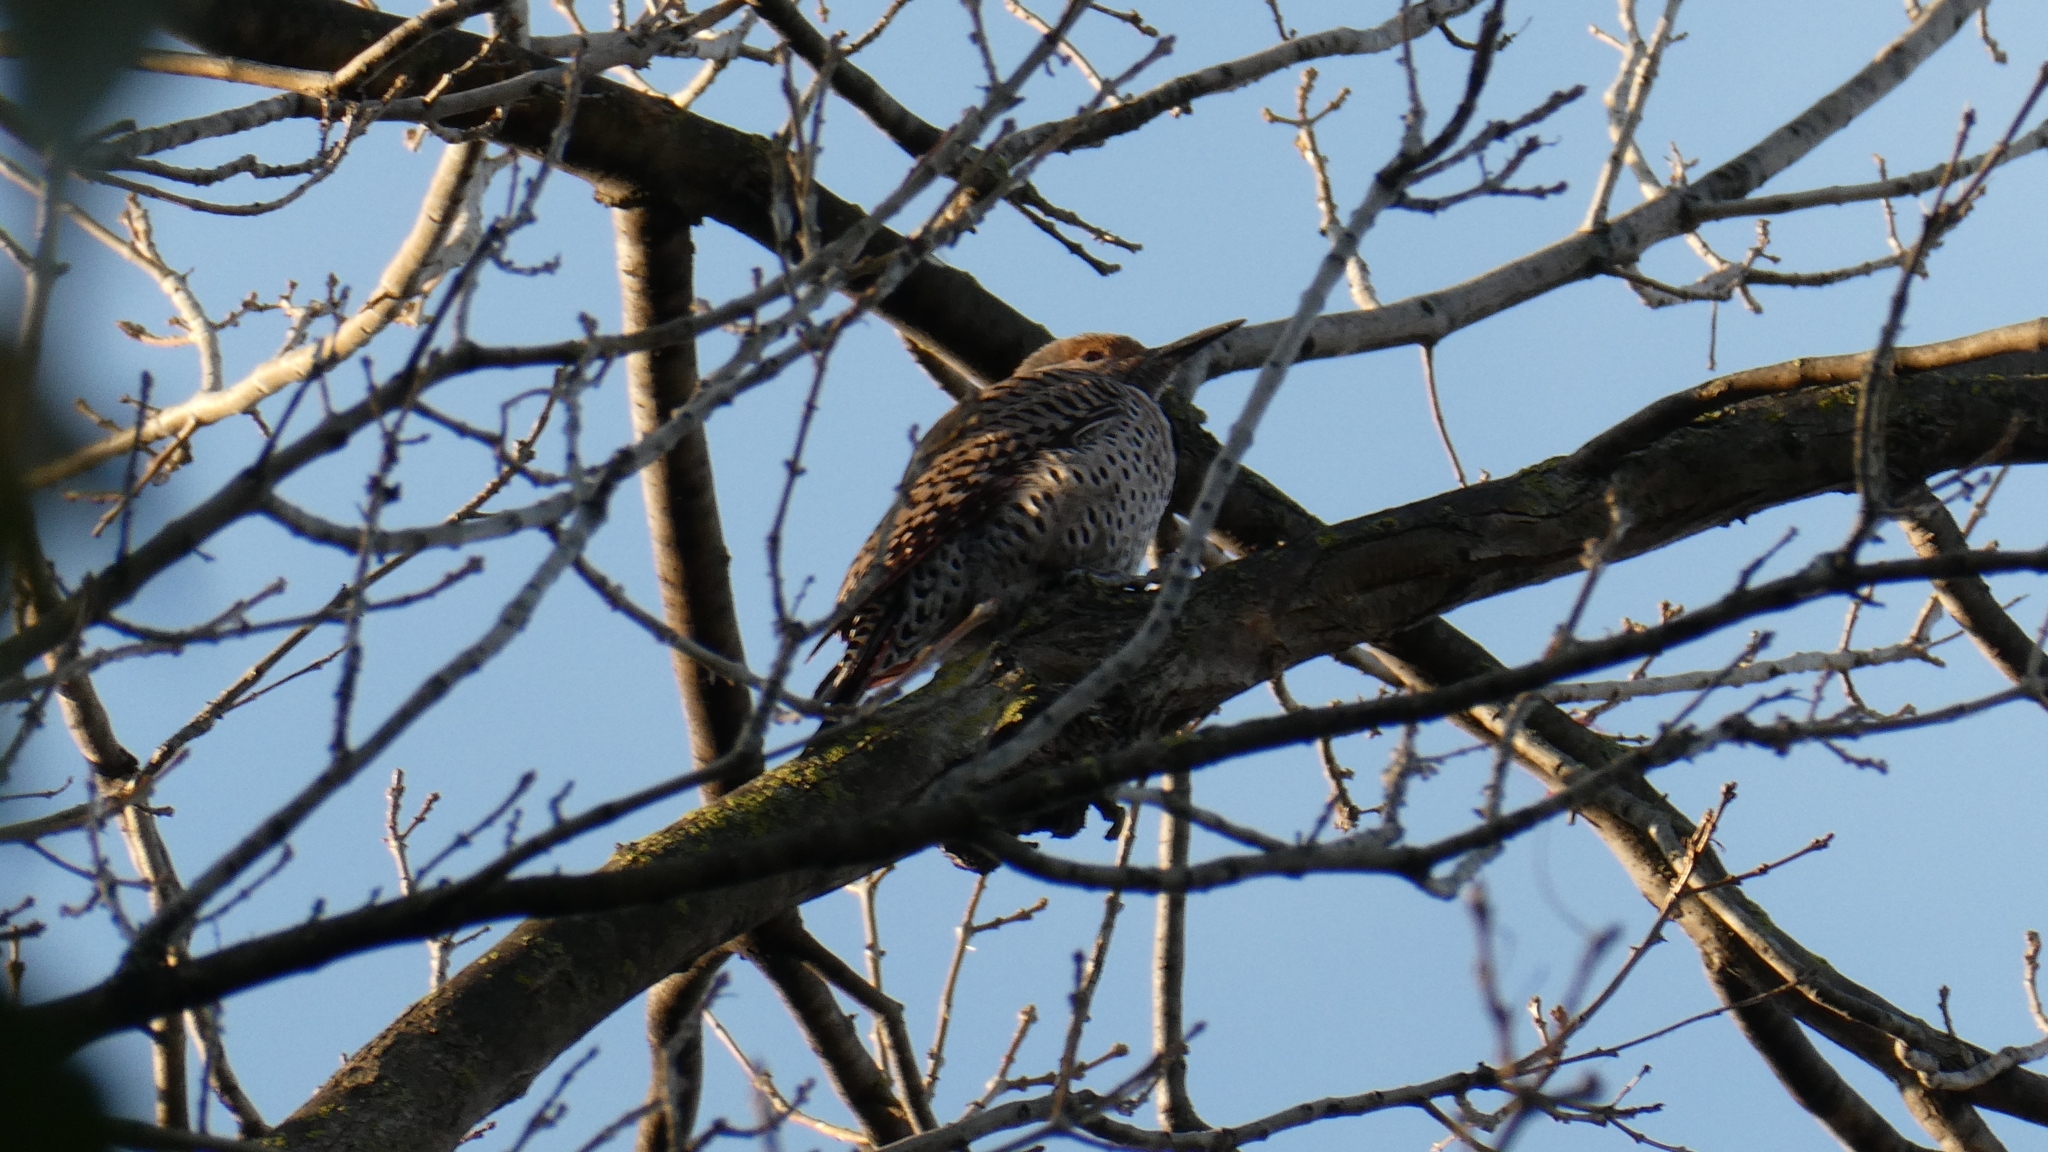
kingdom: Animalia
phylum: Chordata
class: Aves
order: Piciformes
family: Picidae
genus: Colaptes
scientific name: Colaptes auratus
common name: Northern flicker
